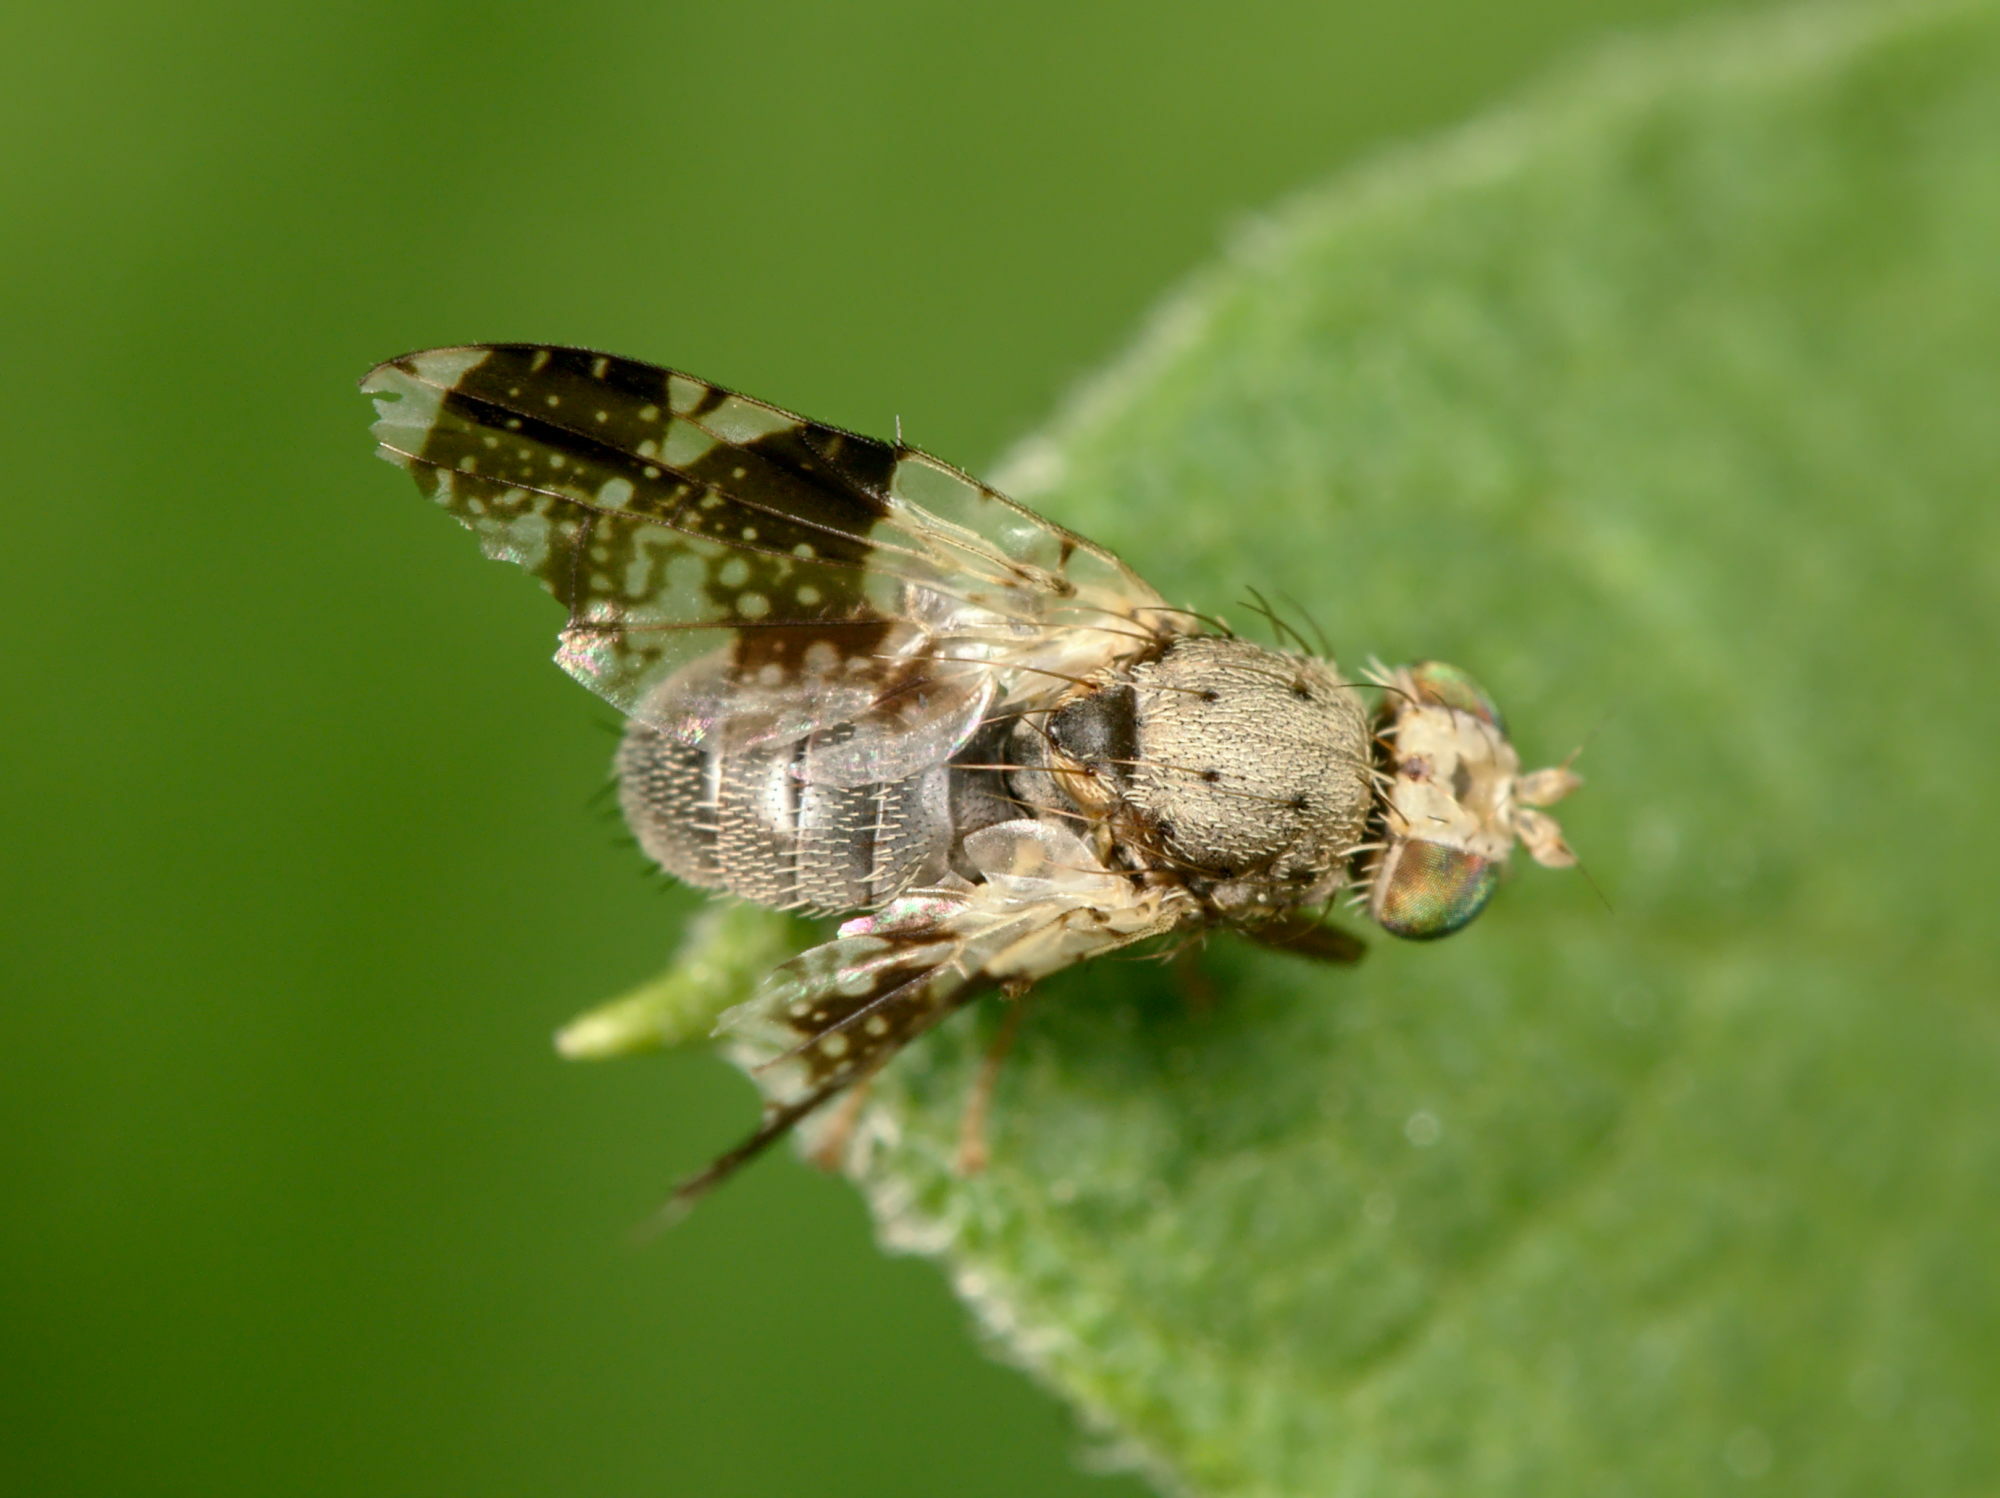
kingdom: Animalia
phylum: Arthropoda
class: Insecta
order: Diptera
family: Tephritidae
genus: Tephritis
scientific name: Tephritis formosa
